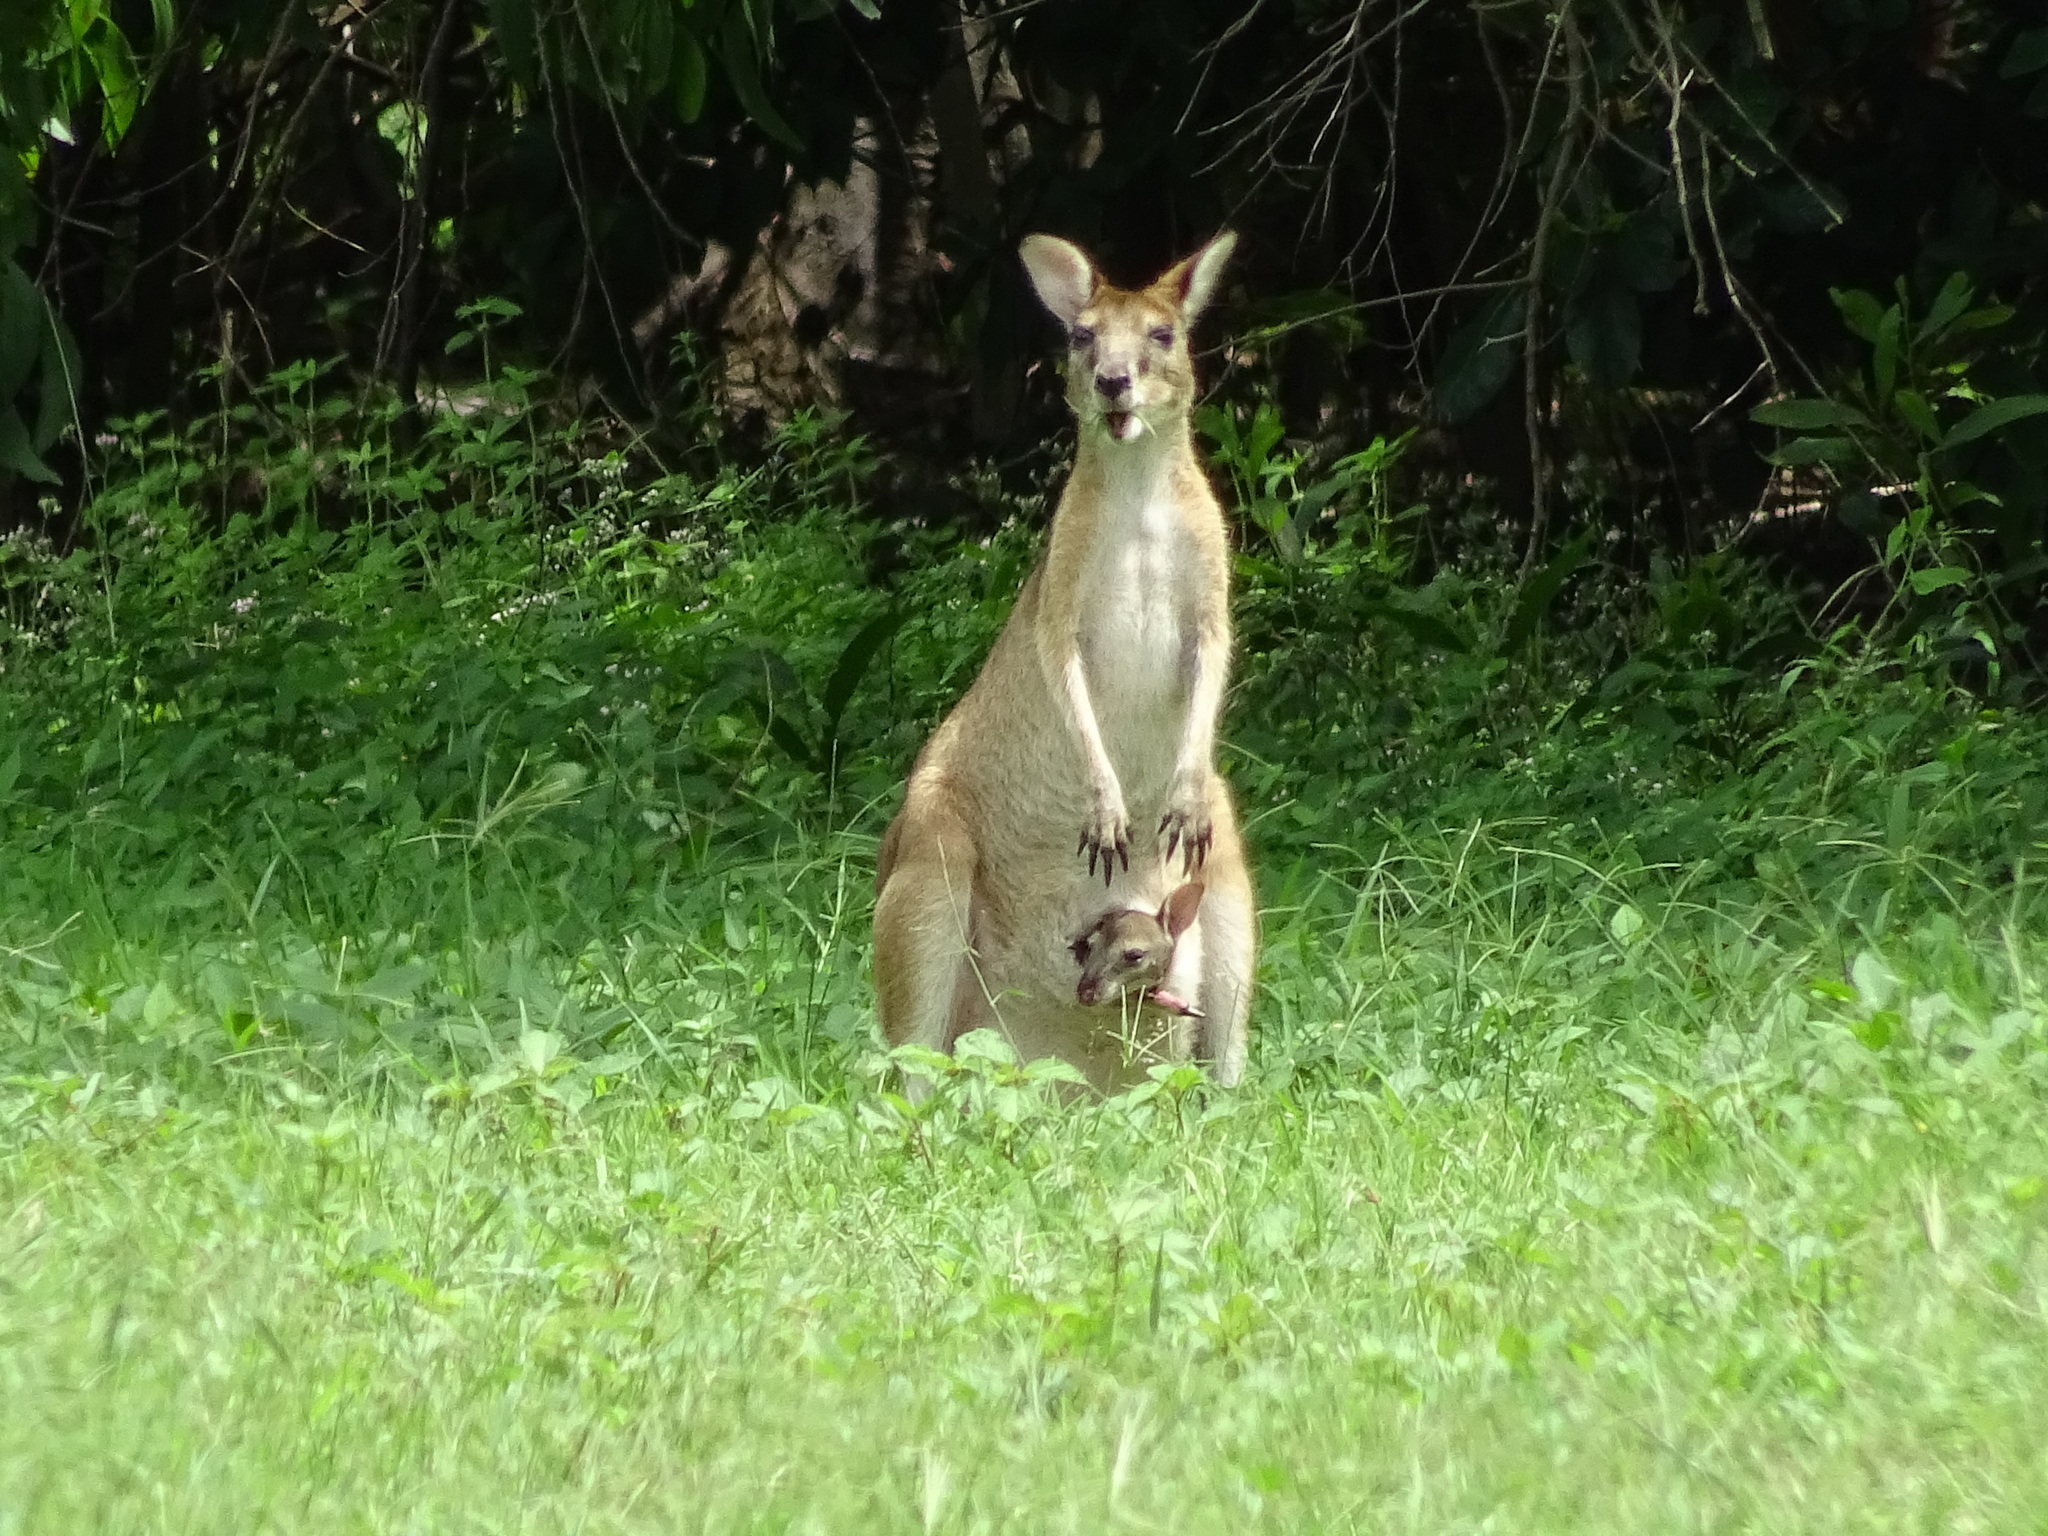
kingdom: Animalia
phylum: Chordata
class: Mammalia
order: Diprotodontia
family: Macropodidae
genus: Macropus
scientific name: Macropus agilis
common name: Agile wallaby
